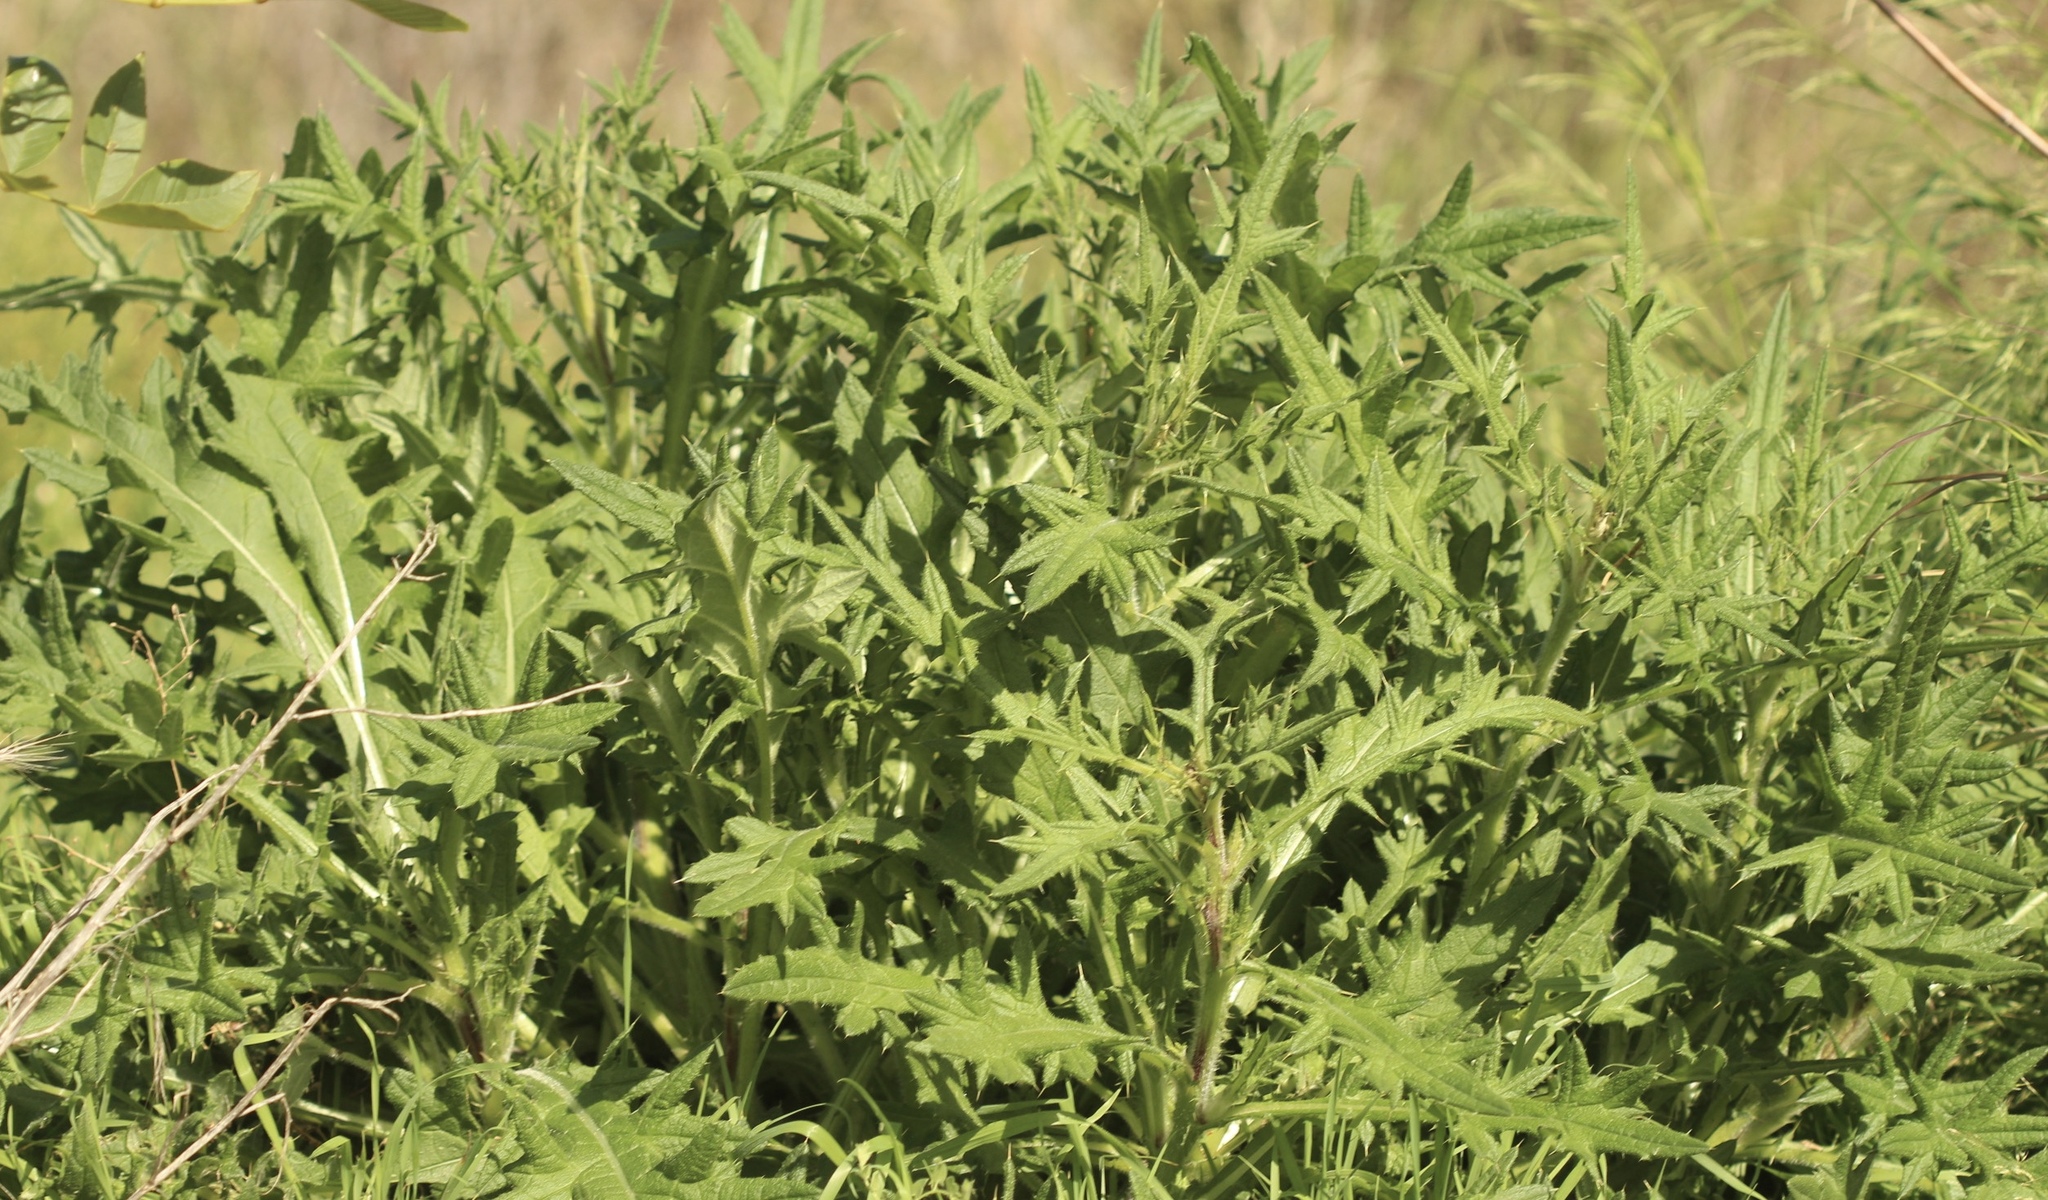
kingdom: Plantae
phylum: Tracheophyta
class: Magnoliopsida
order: Asterales
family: Asteraceae
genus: Cirsium
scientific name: Cirsium vulgare
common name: Bull thistle
